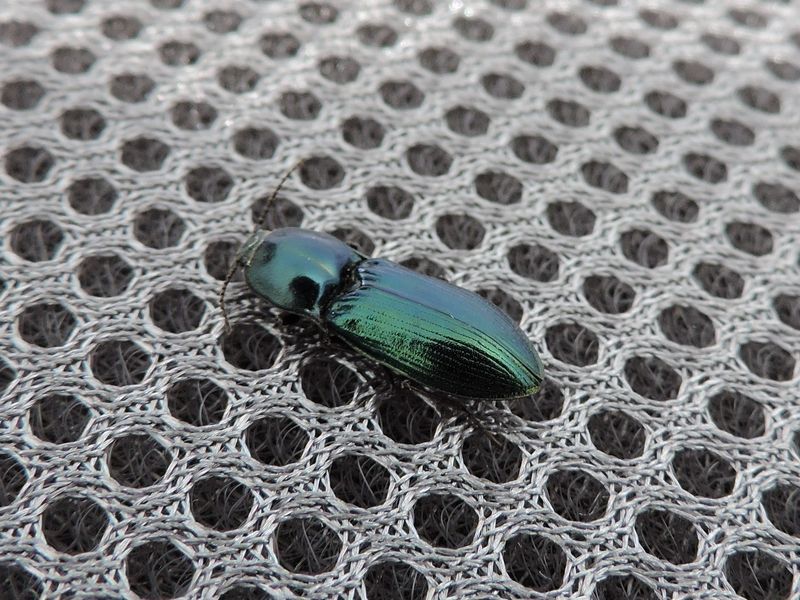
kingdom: Animalia
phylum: Arthropoda
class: Insecta
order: Coleoptera
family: Elateridae
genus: Selatosomus
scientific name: Selatosomus caucasicus
